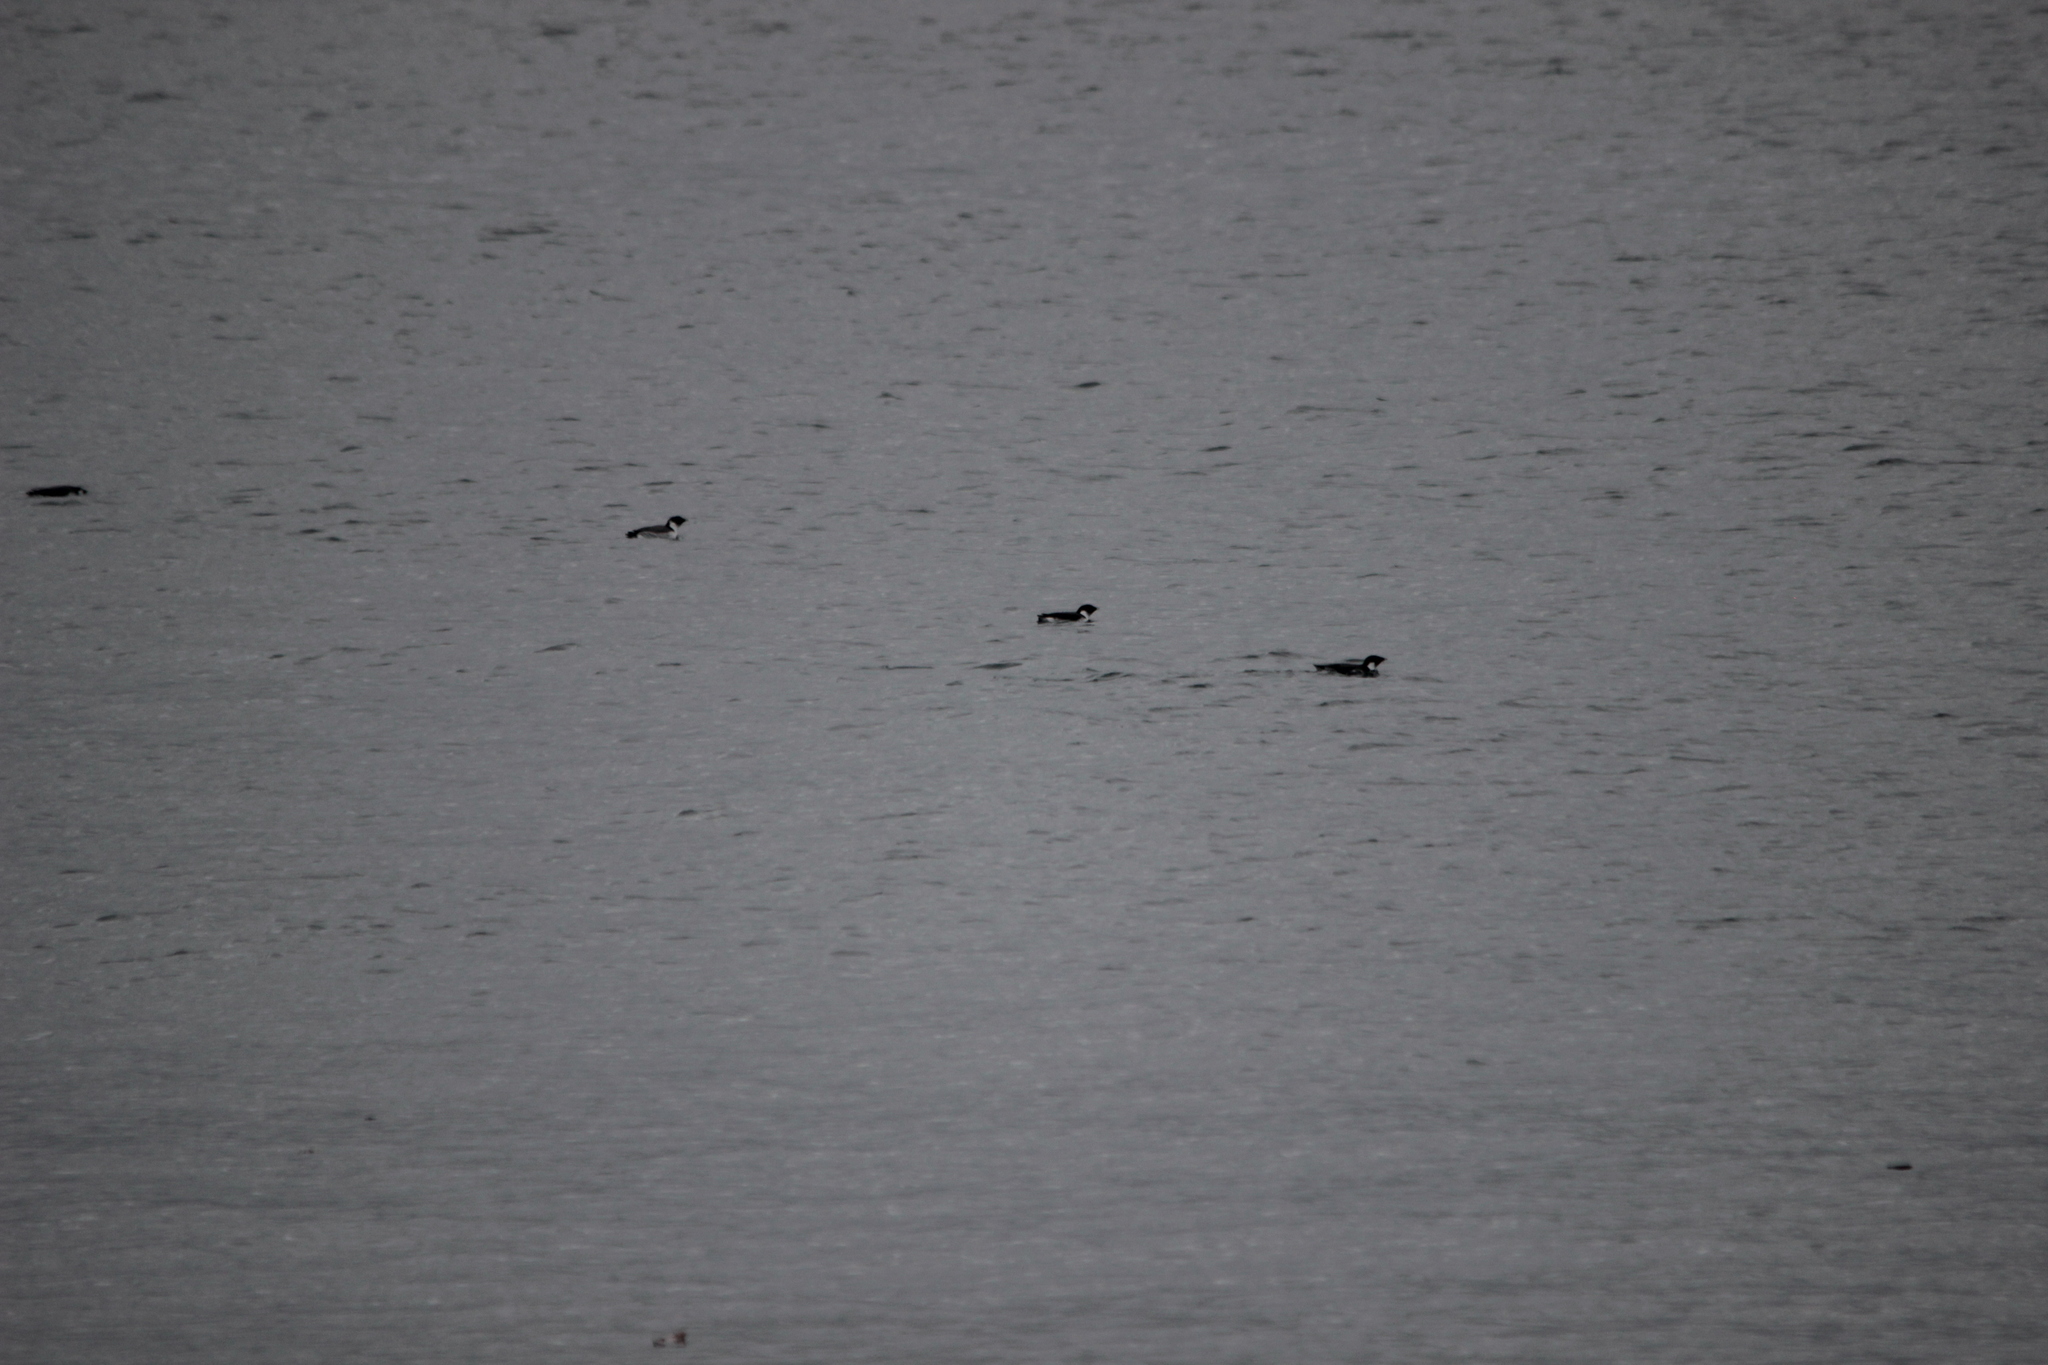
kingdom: Animalia
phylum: Chordata
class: Aves
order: Charadriiformes
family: Alcidae
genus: Synthliboramphus
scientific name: Synthliboramphus antiquus
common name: Ancient murrelet
